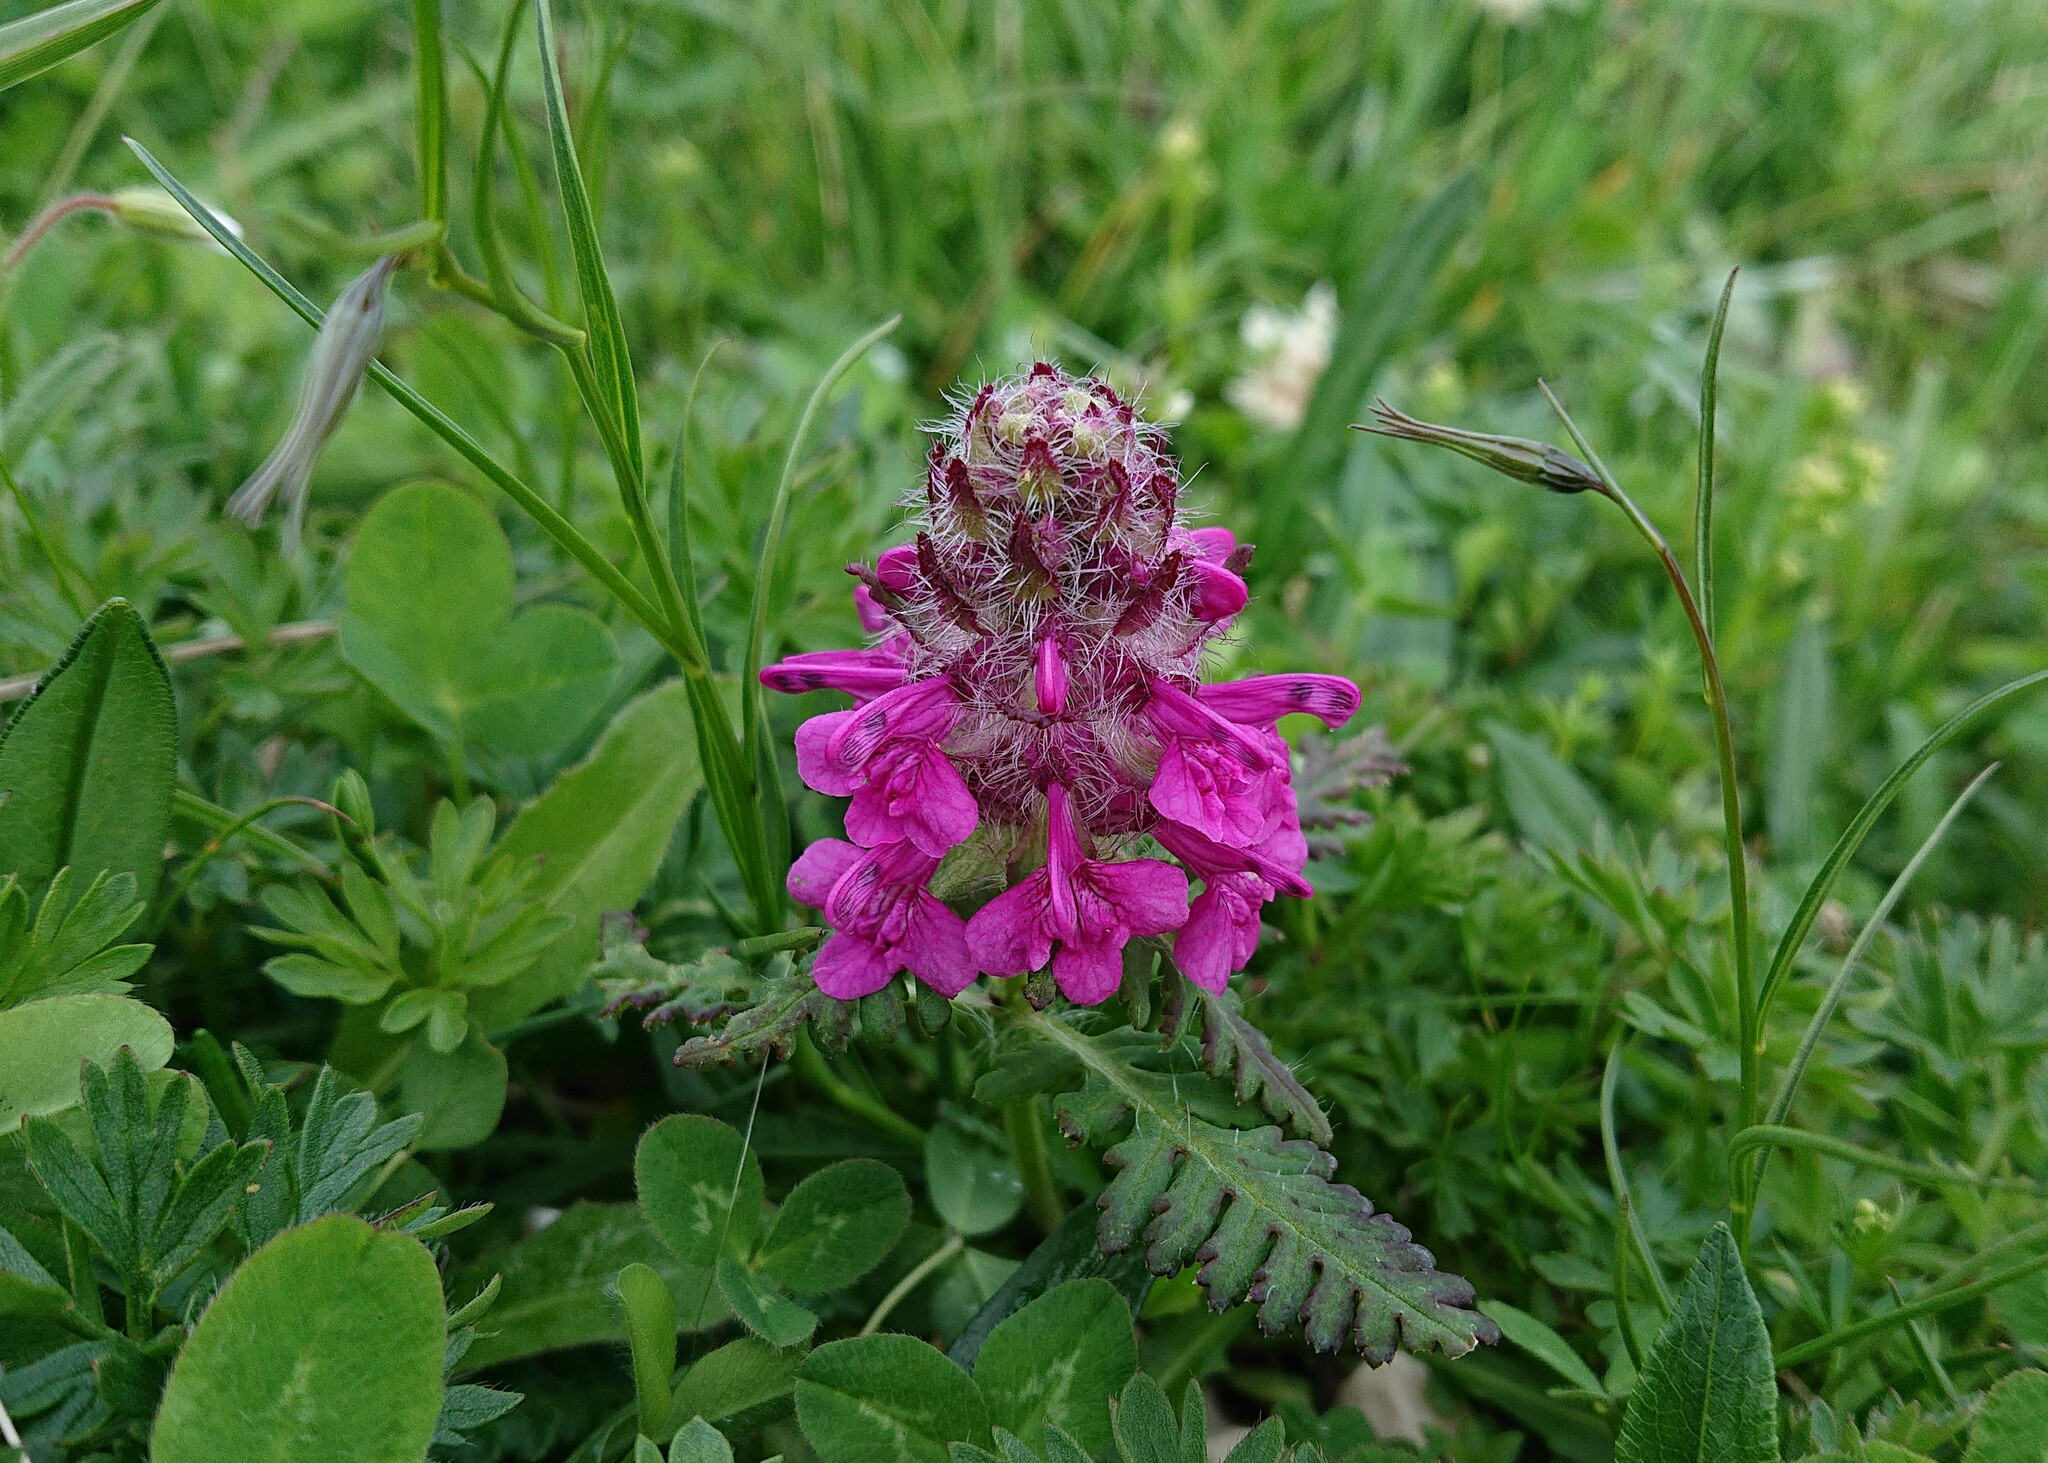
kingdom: Plantae
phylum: Tracheophyta
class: Magnoliopsida
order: Lamiales
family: Orobanchaceae
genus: Pedicularis
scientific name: Pedicularis verticillata
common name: Whorled lousewort
